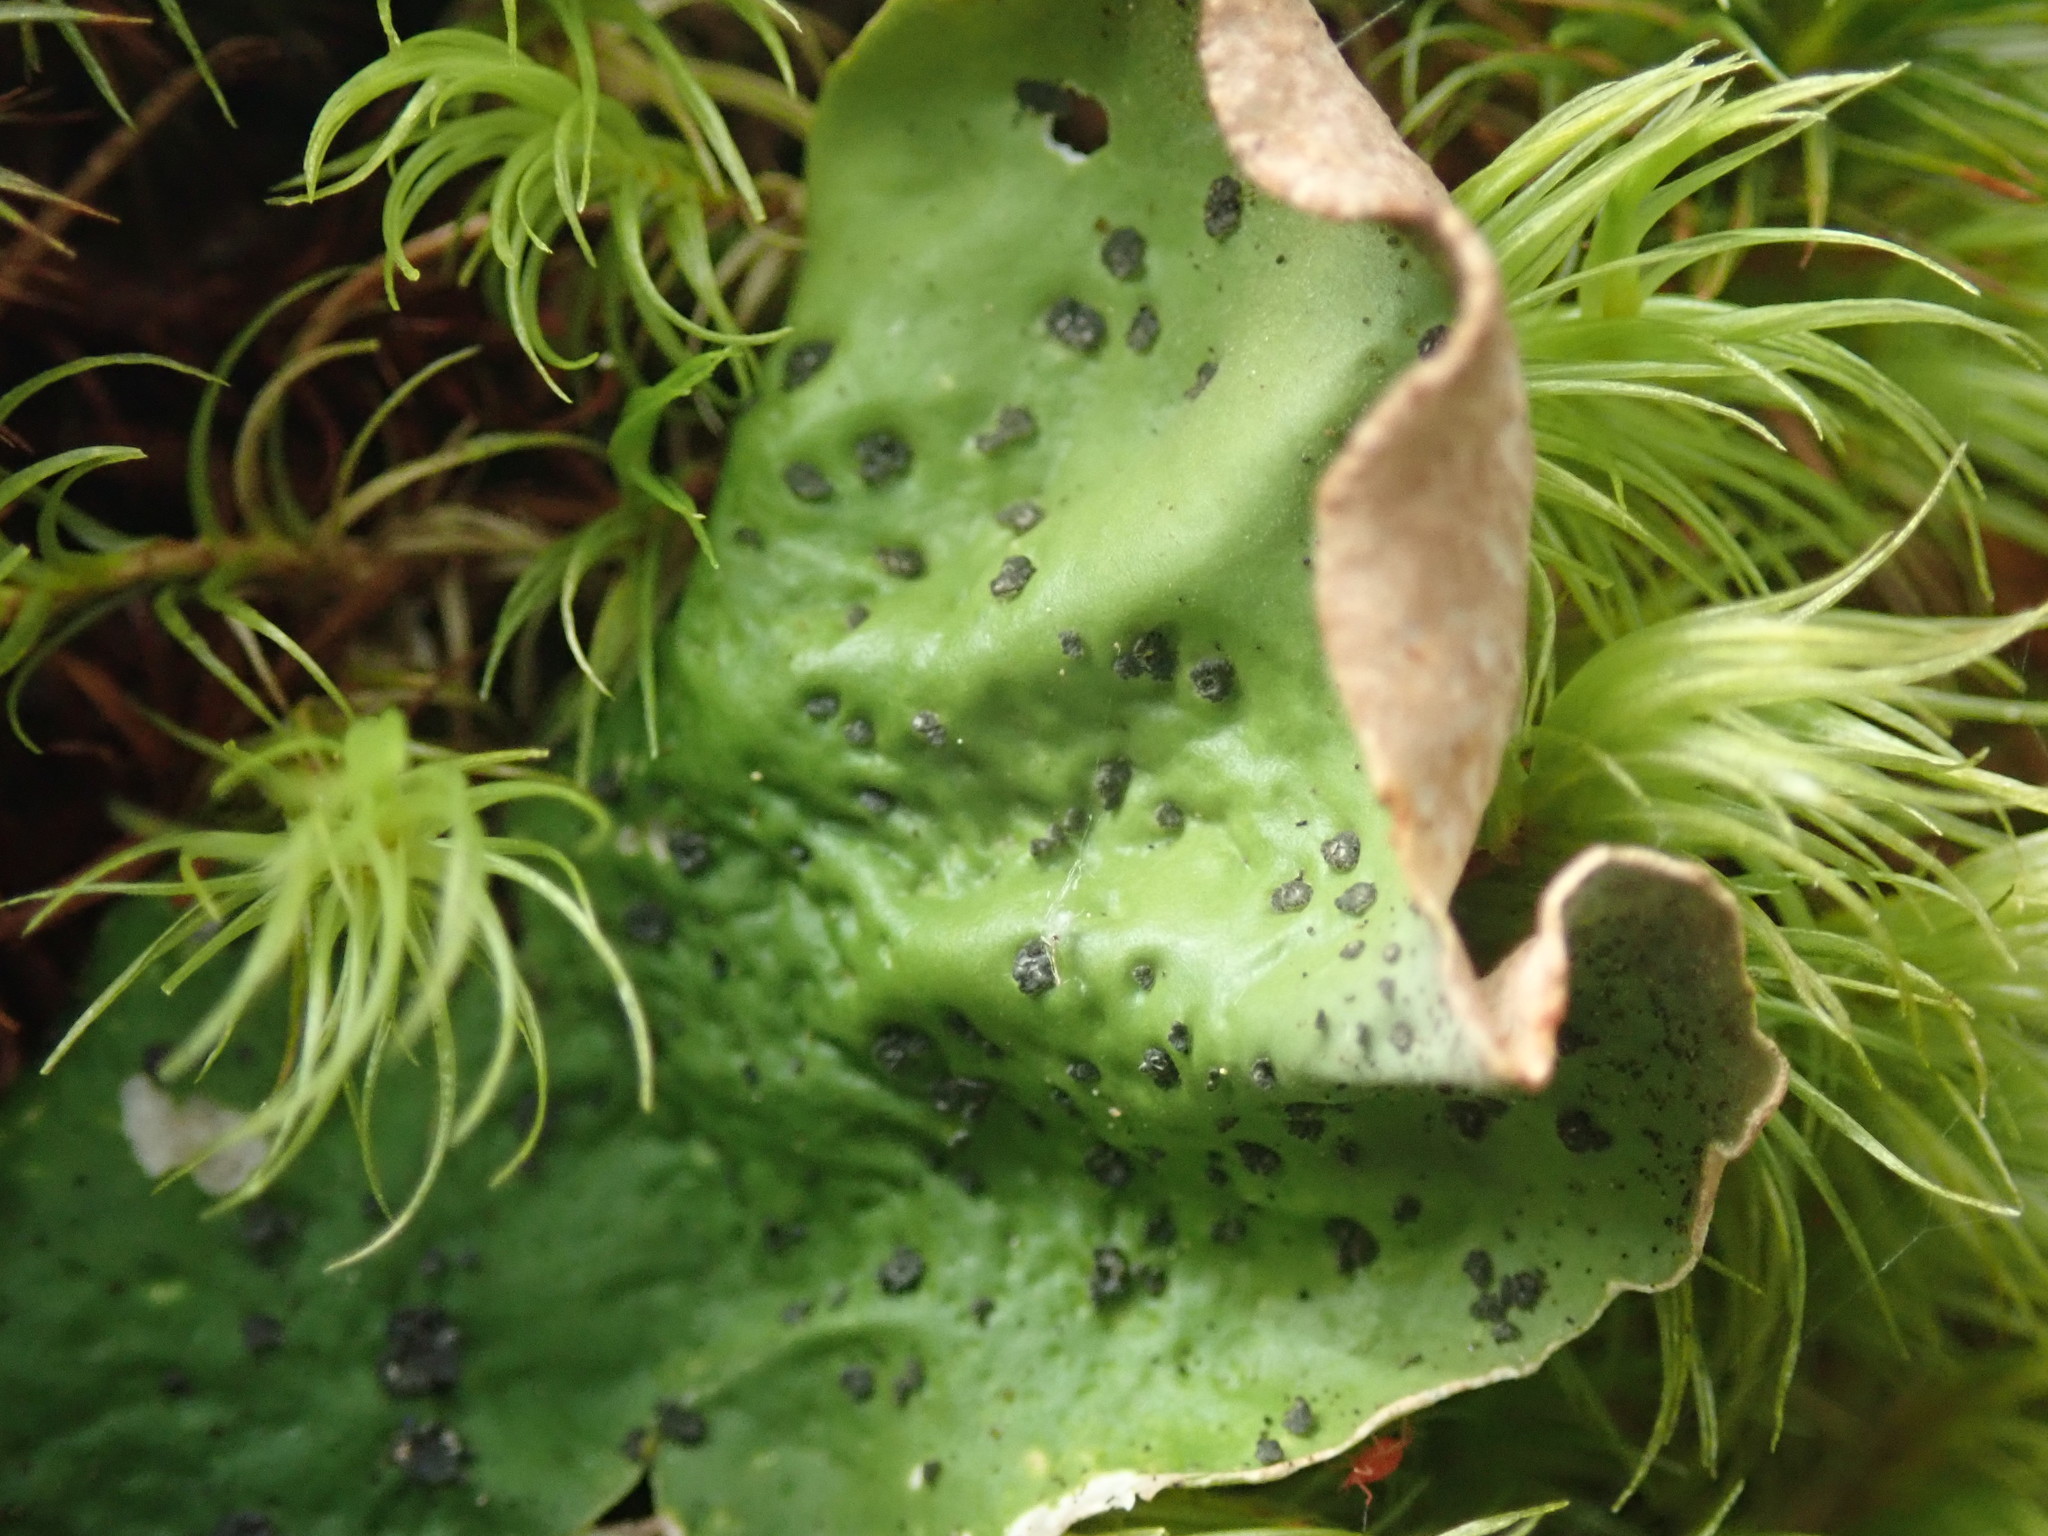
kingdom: Fungi
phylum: Ascomycota
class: Lecanoromycetes
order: Peltigerales
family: Peltigeraceae
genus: Peltigera
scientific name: Peltigera britannica
